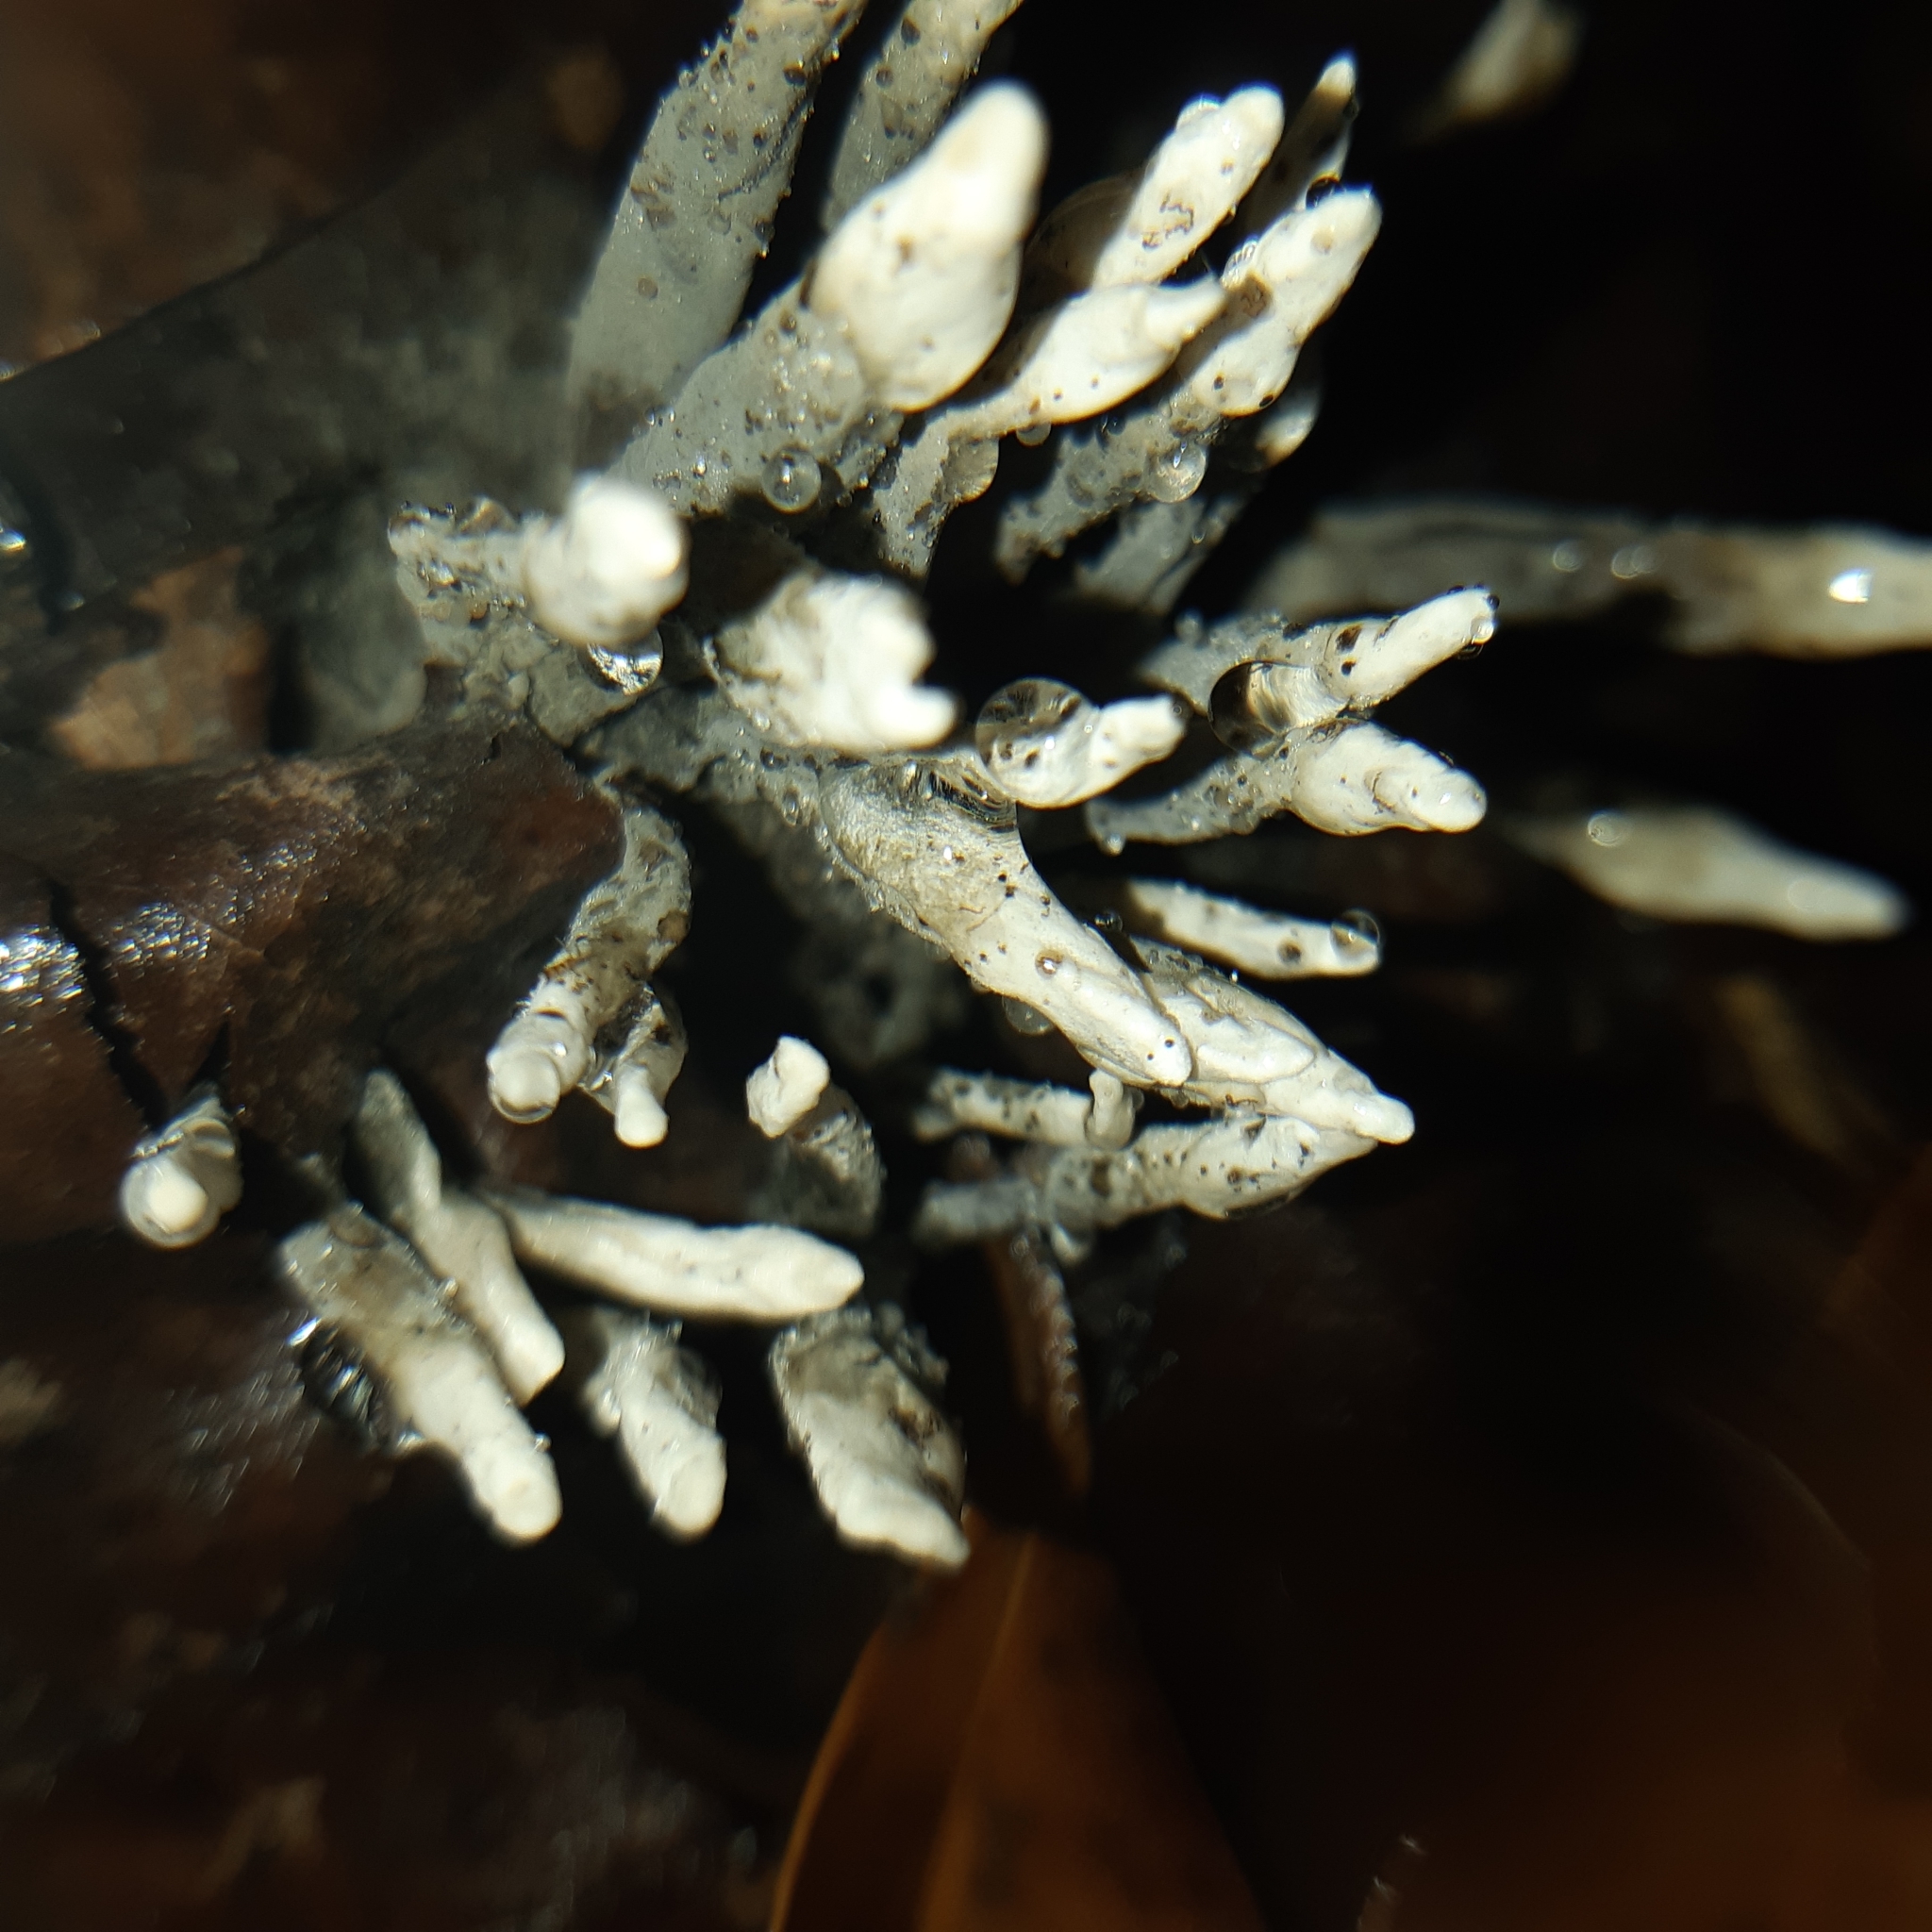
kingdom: Fungi
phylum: Ascomycota
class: Sordariomycetes
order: Xylariales
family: Xylariaceae
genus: Xylaria
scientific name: Xylaria polymorpha
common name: Dead man's fingers
